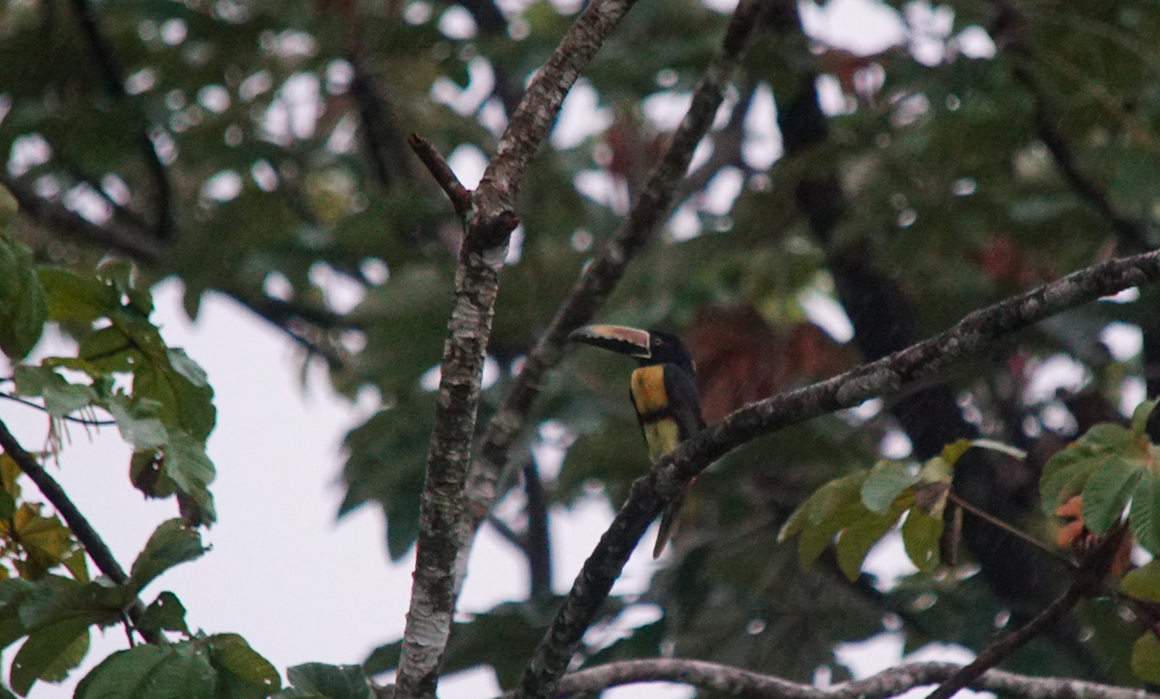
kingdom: Animalia
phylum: Chordata
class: Aves
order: Piciformes
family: Ramphastidae
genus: Pteroglossus
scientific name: Pteroglossus torquatus
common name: Collared aracari
